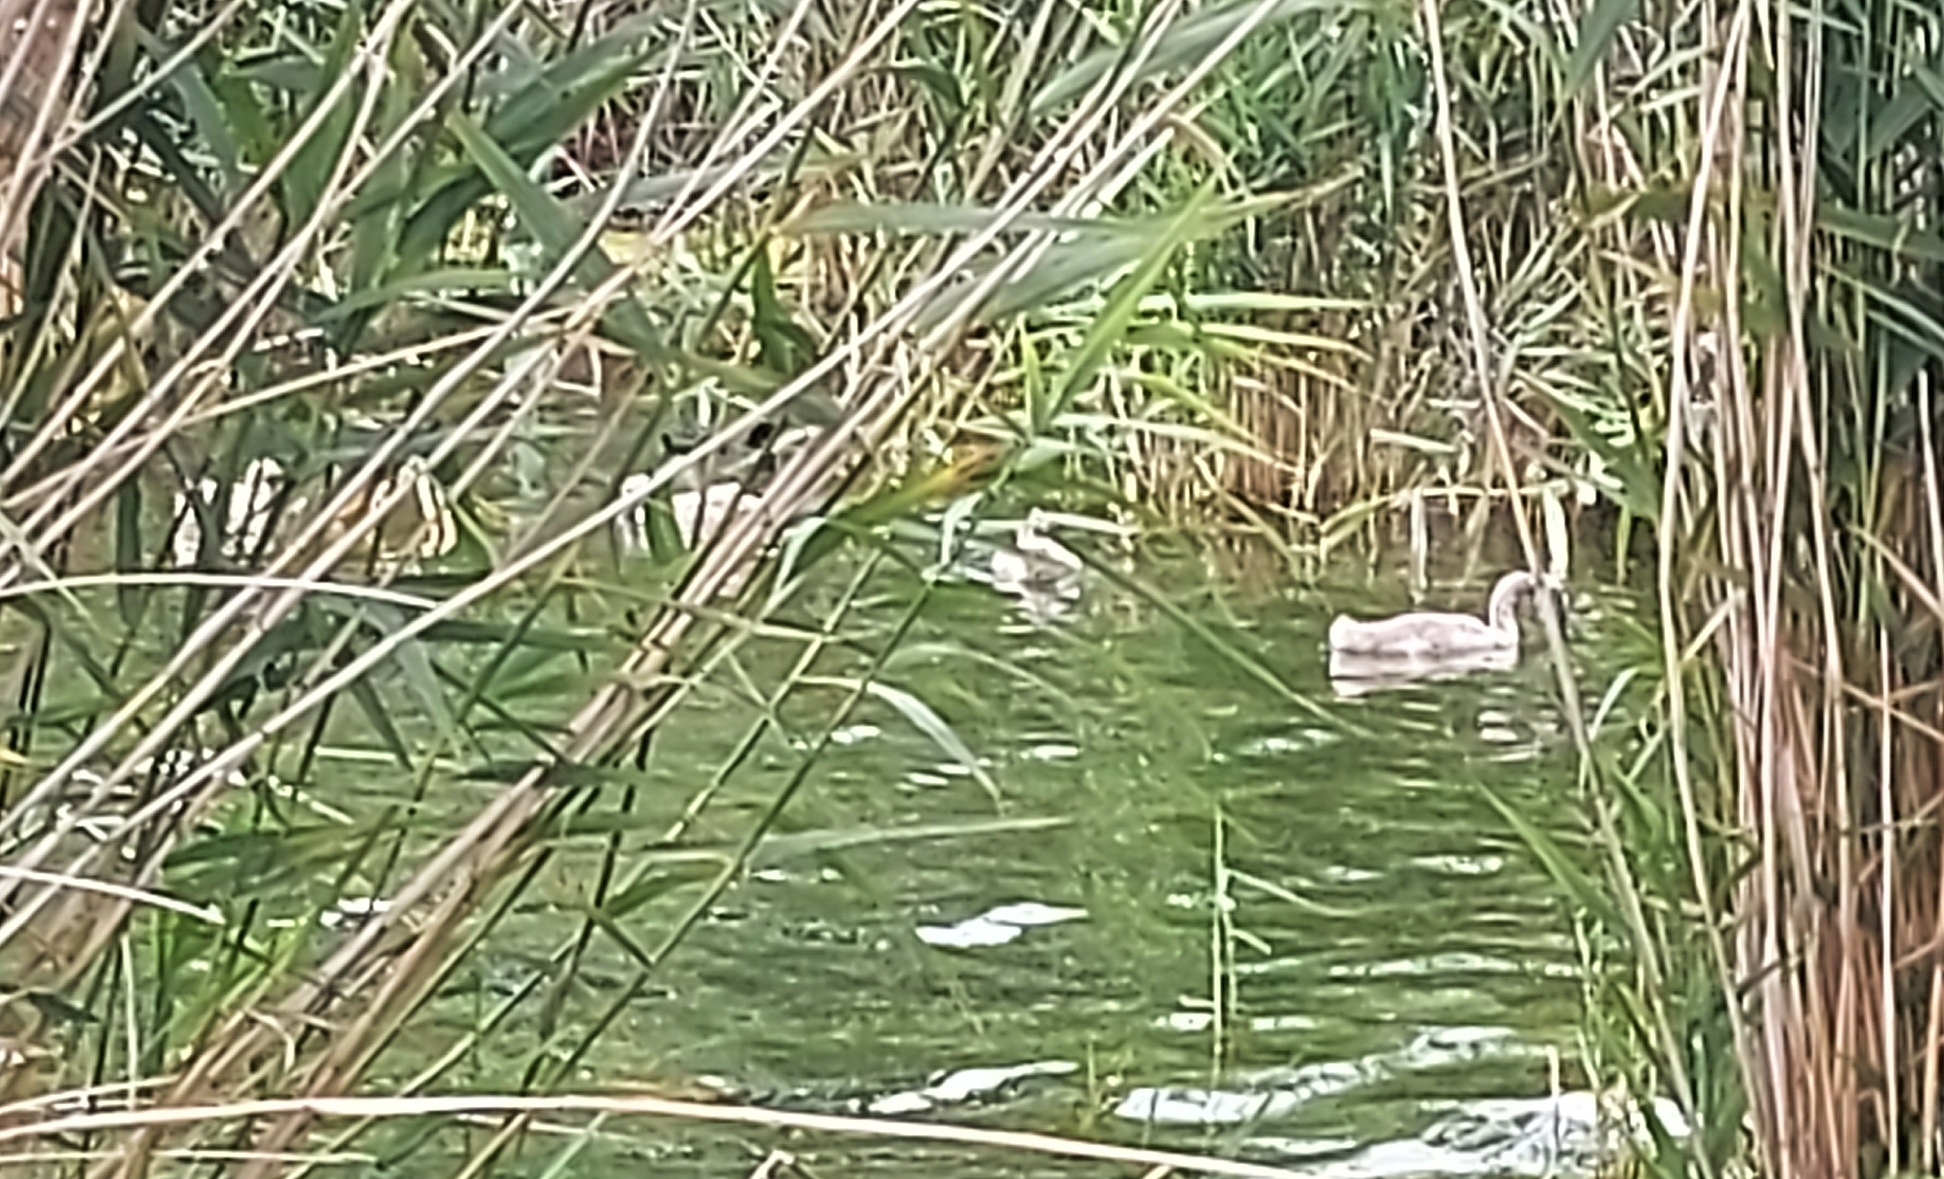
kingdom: Animalia
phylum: Chordata
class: Aves
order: Anseriformes
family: Anatidae
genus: Cygnus
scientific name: Cygnus olor
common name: Mute swan
